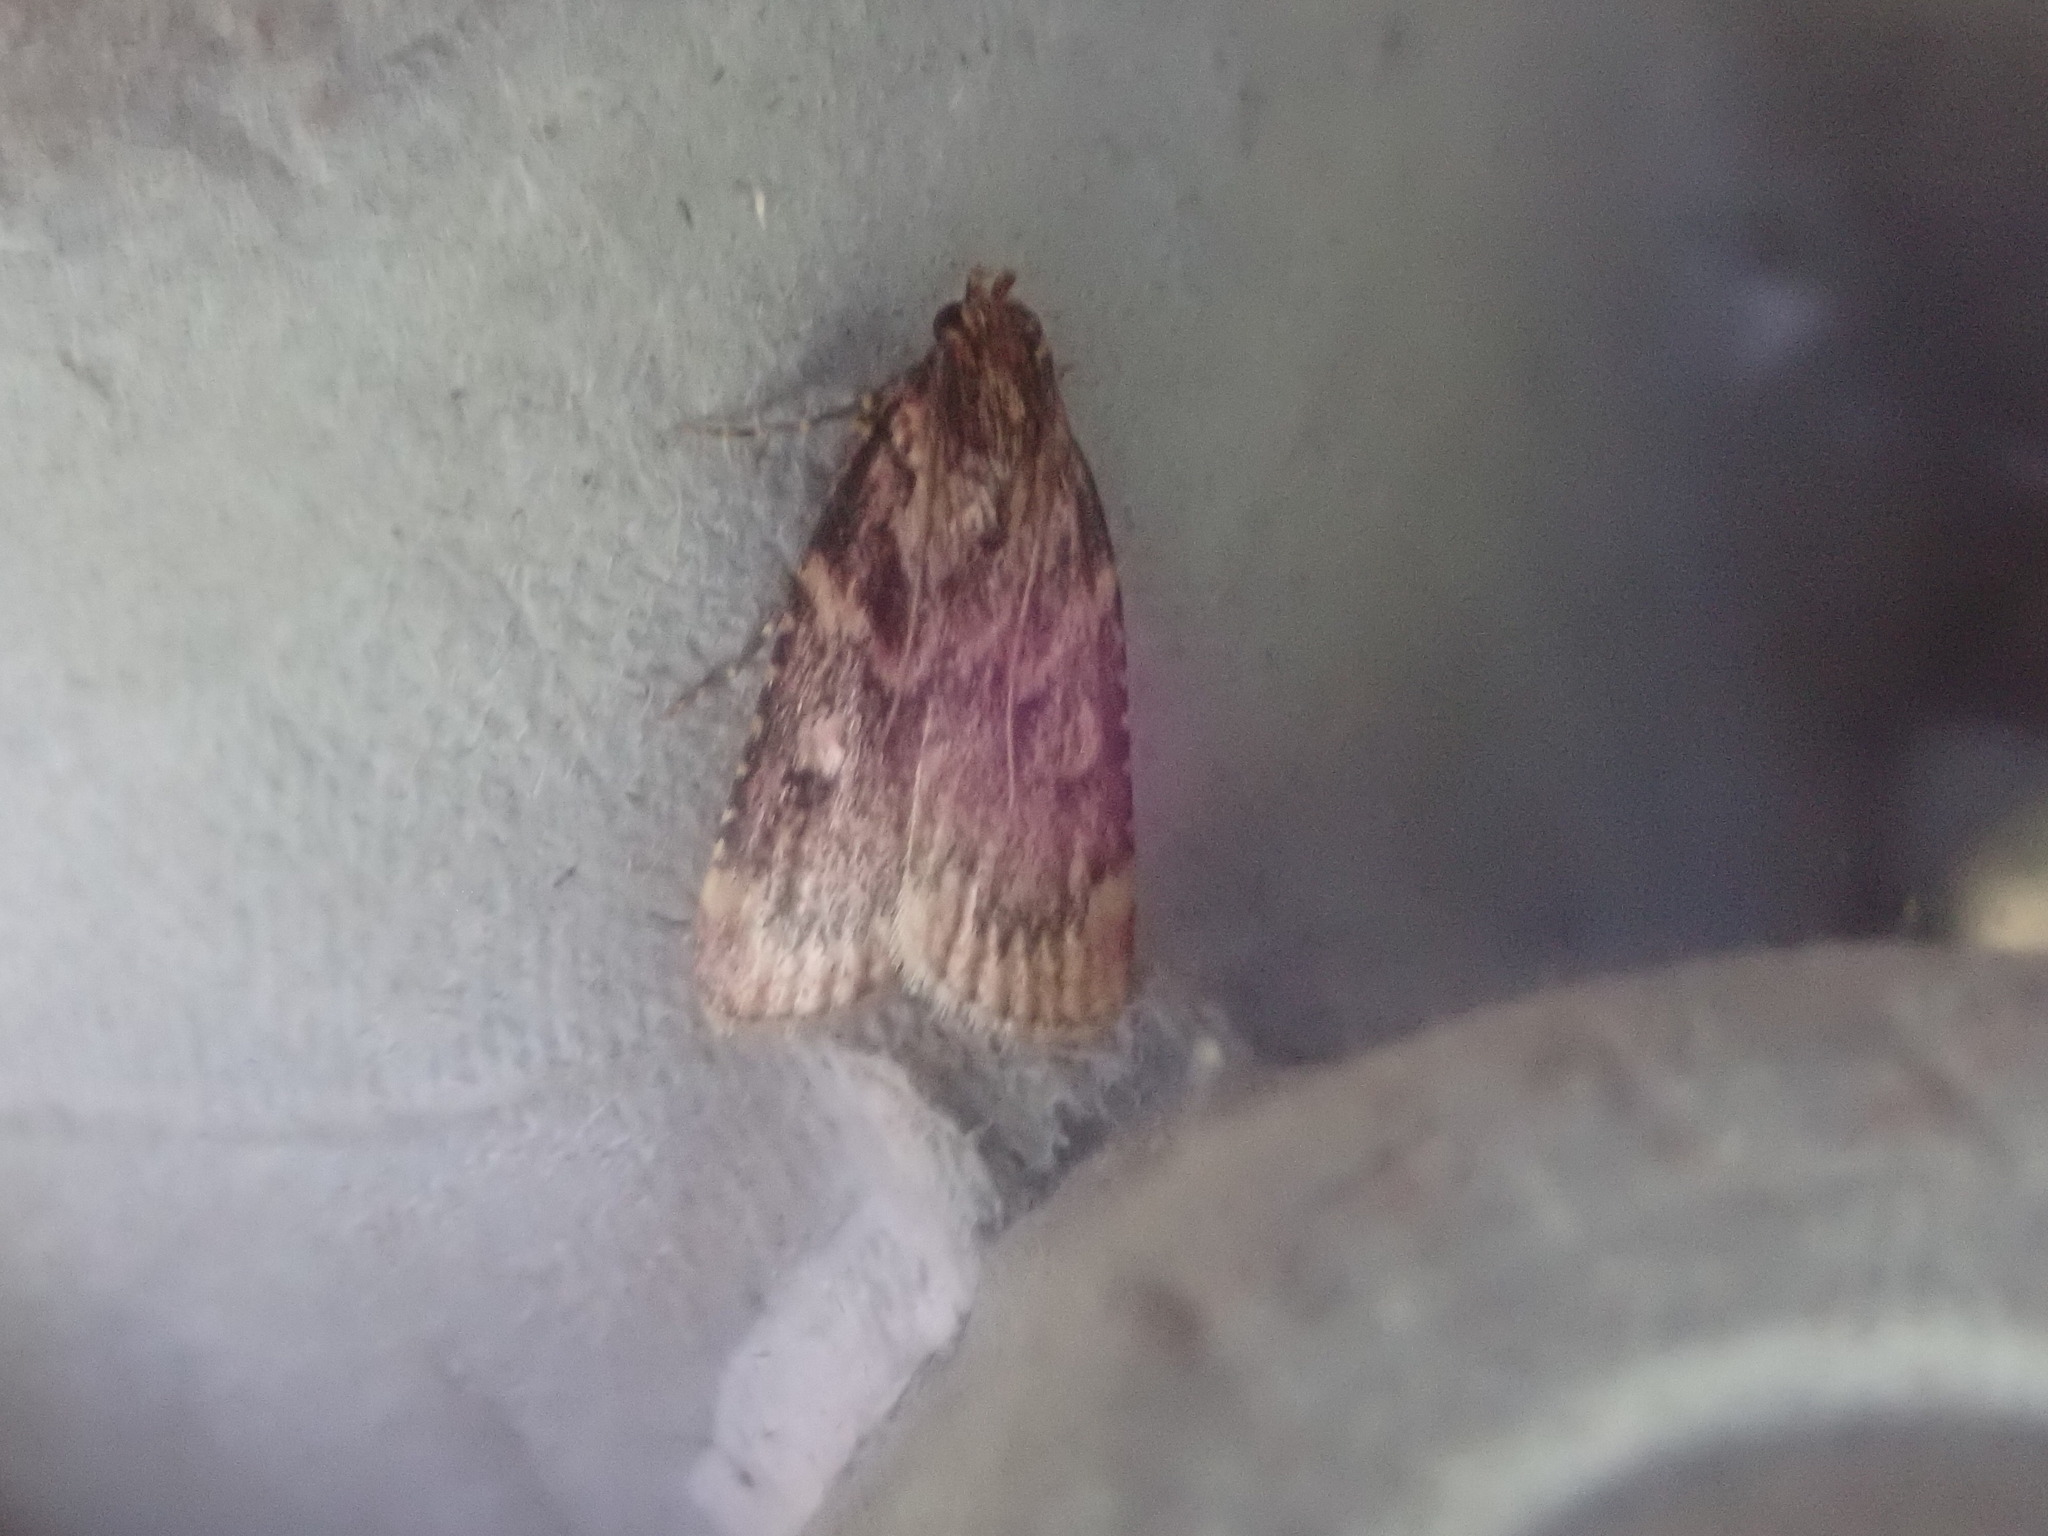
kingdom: Animalia
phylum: Arthropoda
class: Insecta
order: Lepidoptera
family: Pyralidae
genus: Aglossa
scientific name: Aglossa cuprina
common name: Grease moth
